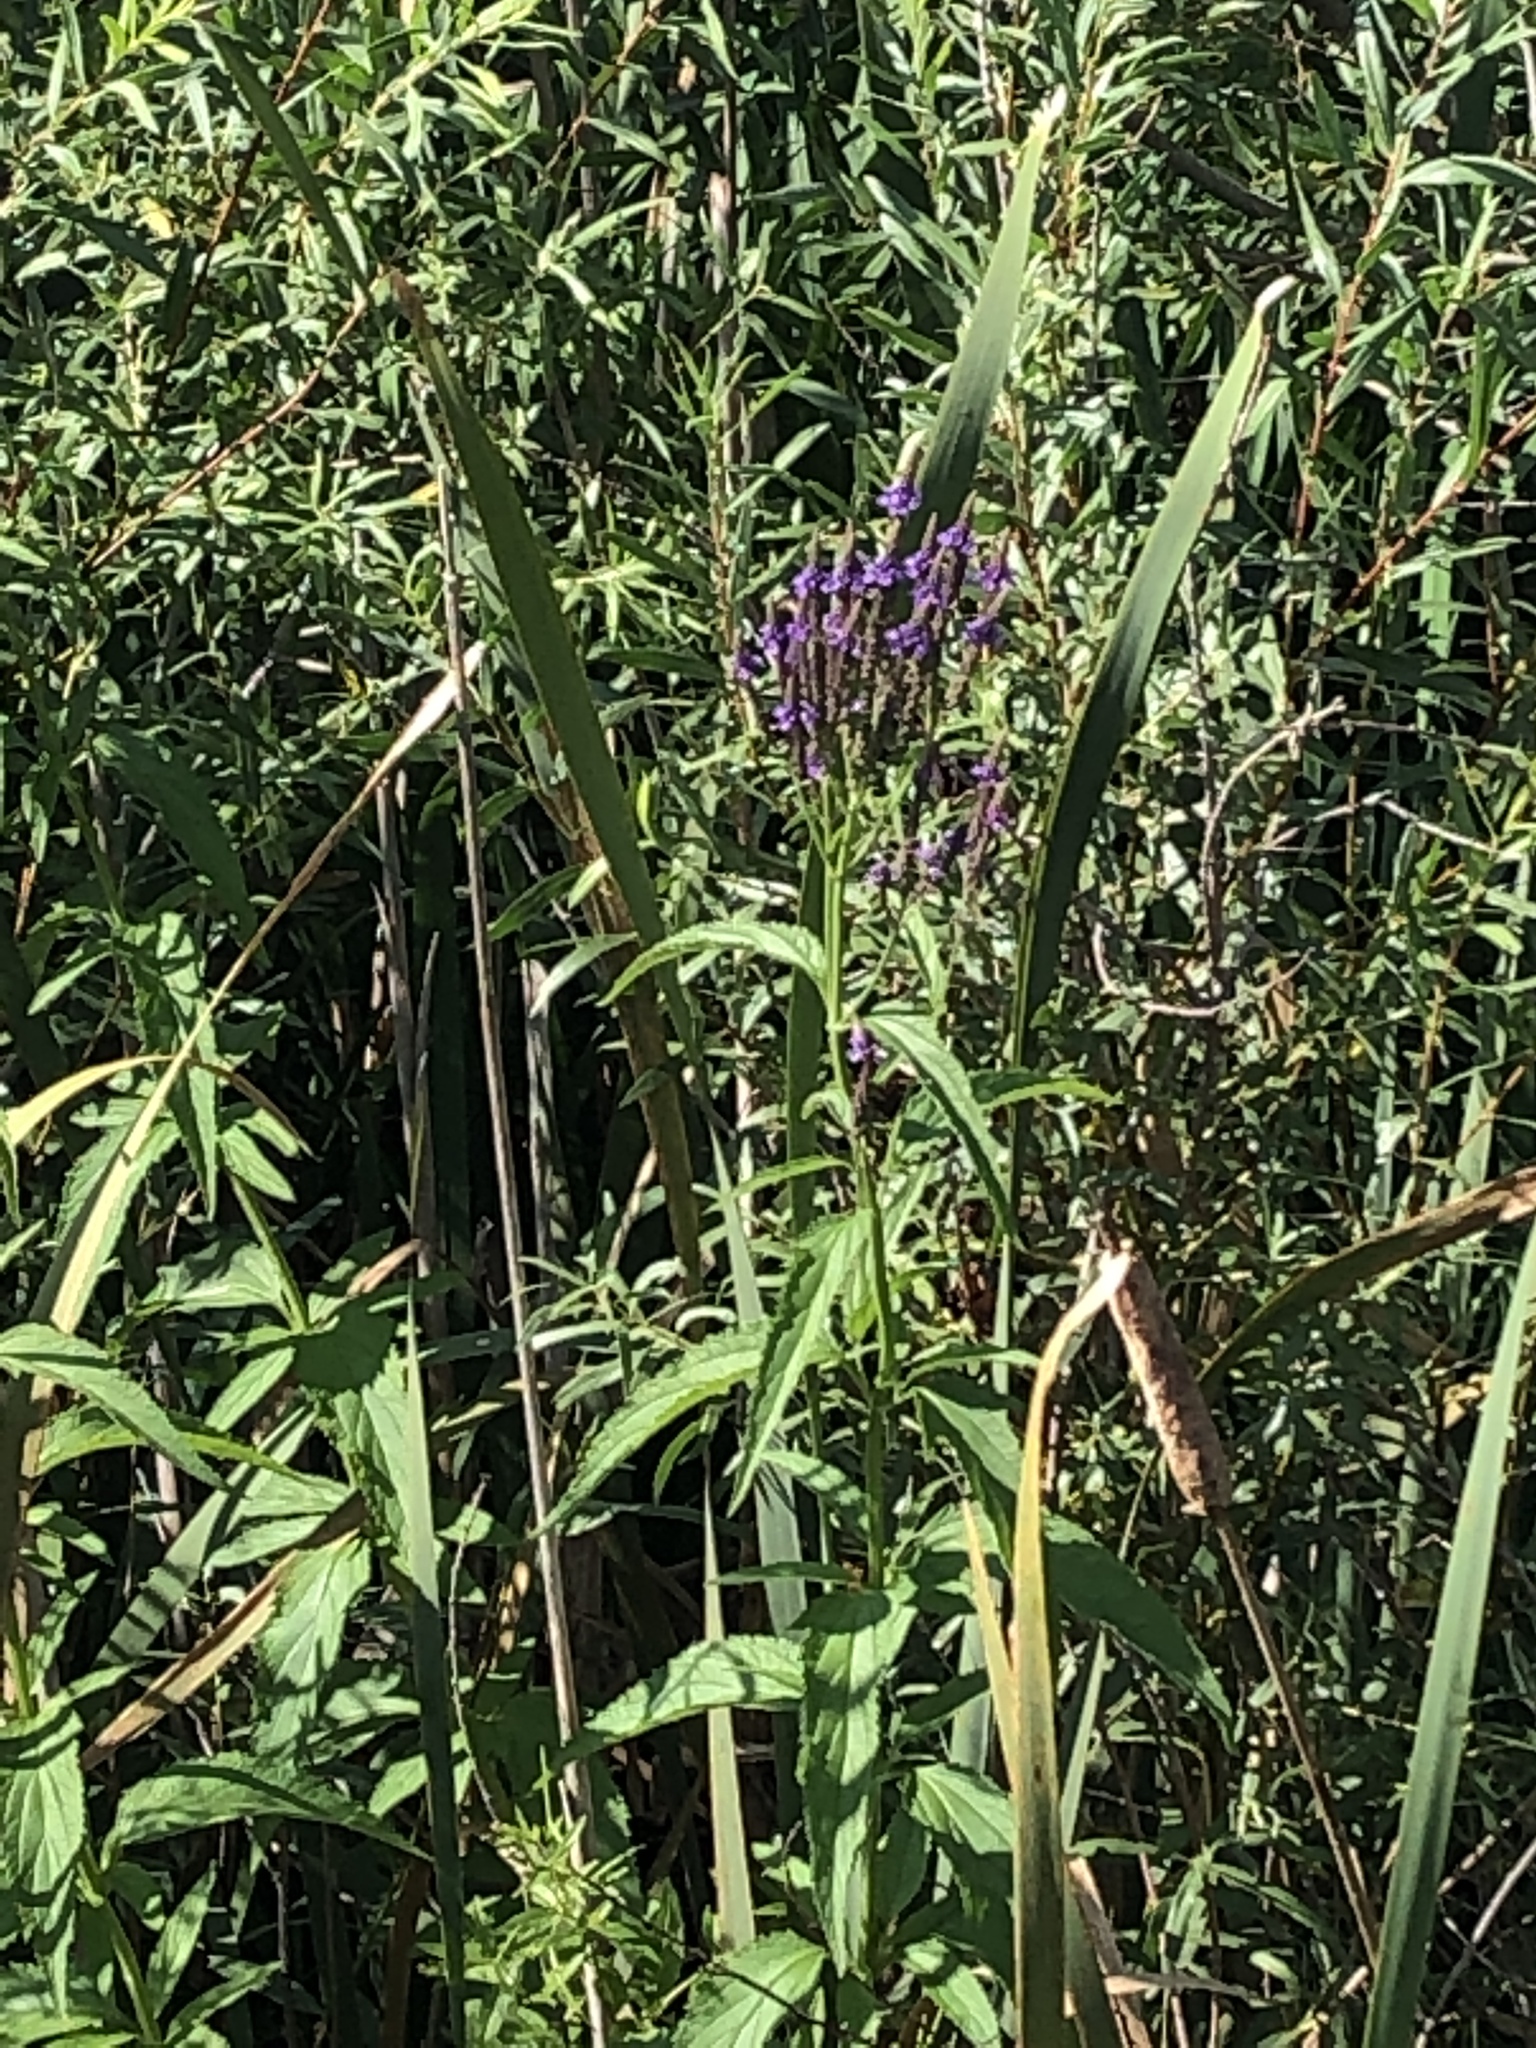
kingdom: Plantae
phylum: Tracheophyta
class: Magnoliopsida
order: Lamiales
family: Verbenaceae
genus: Verbena
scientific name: Verbena hastata
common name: American blue vervain
